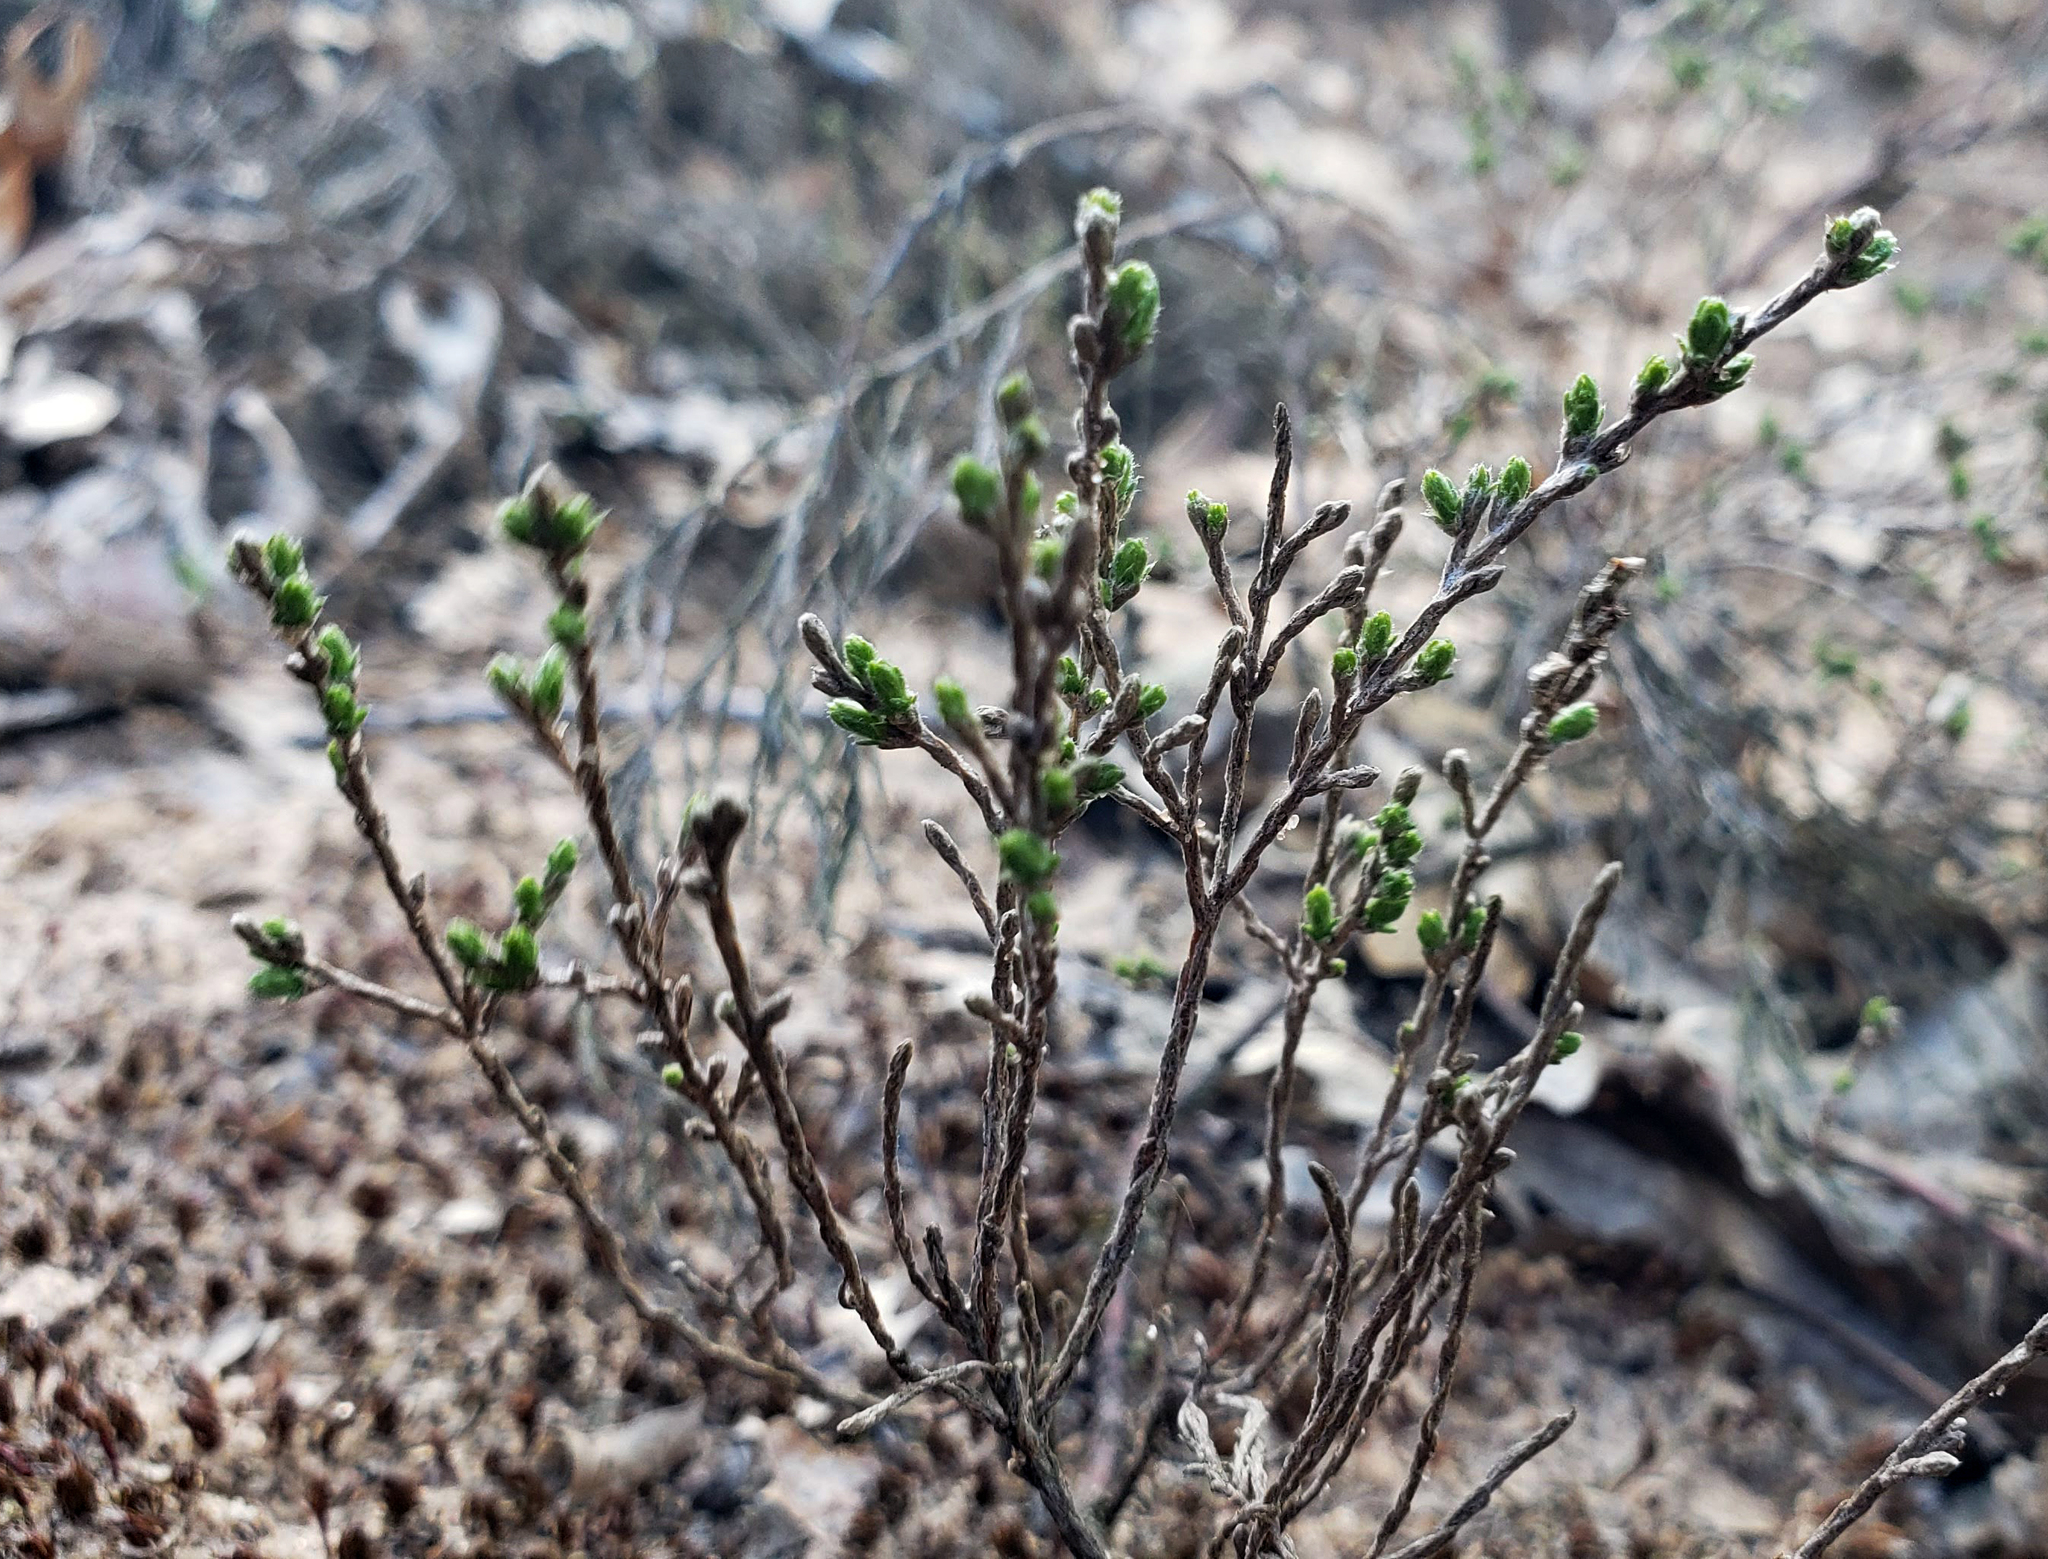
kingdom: Plantae
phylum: Tracheophyta
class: Magnoliopsida
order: Malvales
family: Cistaceae
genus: Hudsonia
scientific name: Hudsonia tomentosa
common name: Beach-heath
